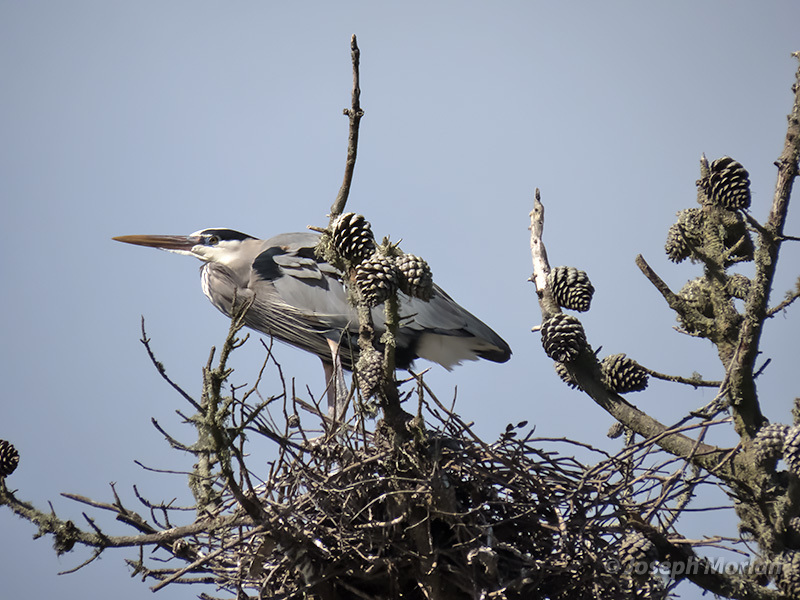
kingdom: Animalia
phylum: Chordata
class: Aves
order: Pelecaniformes
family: Ardeidae
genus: Ardea
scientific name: Ardea herodias
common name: Great blue heron
